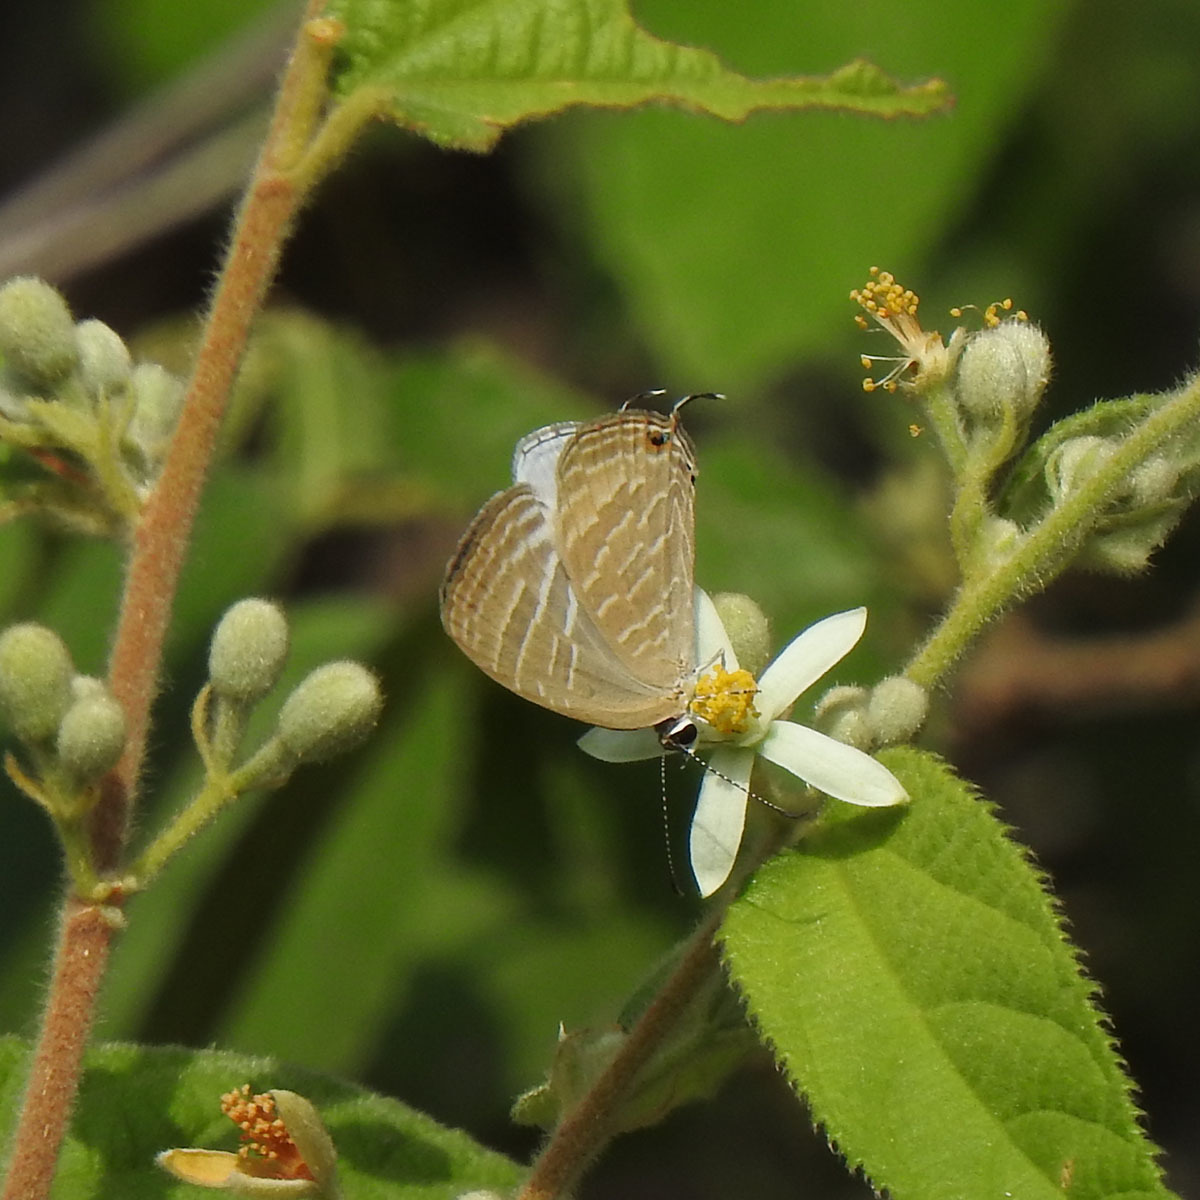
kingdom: Animalia
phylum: Arthropoda
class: Insecta
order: Lepidoptera
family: Lycaenidae
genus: Jamides
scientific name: Jamides celeno
